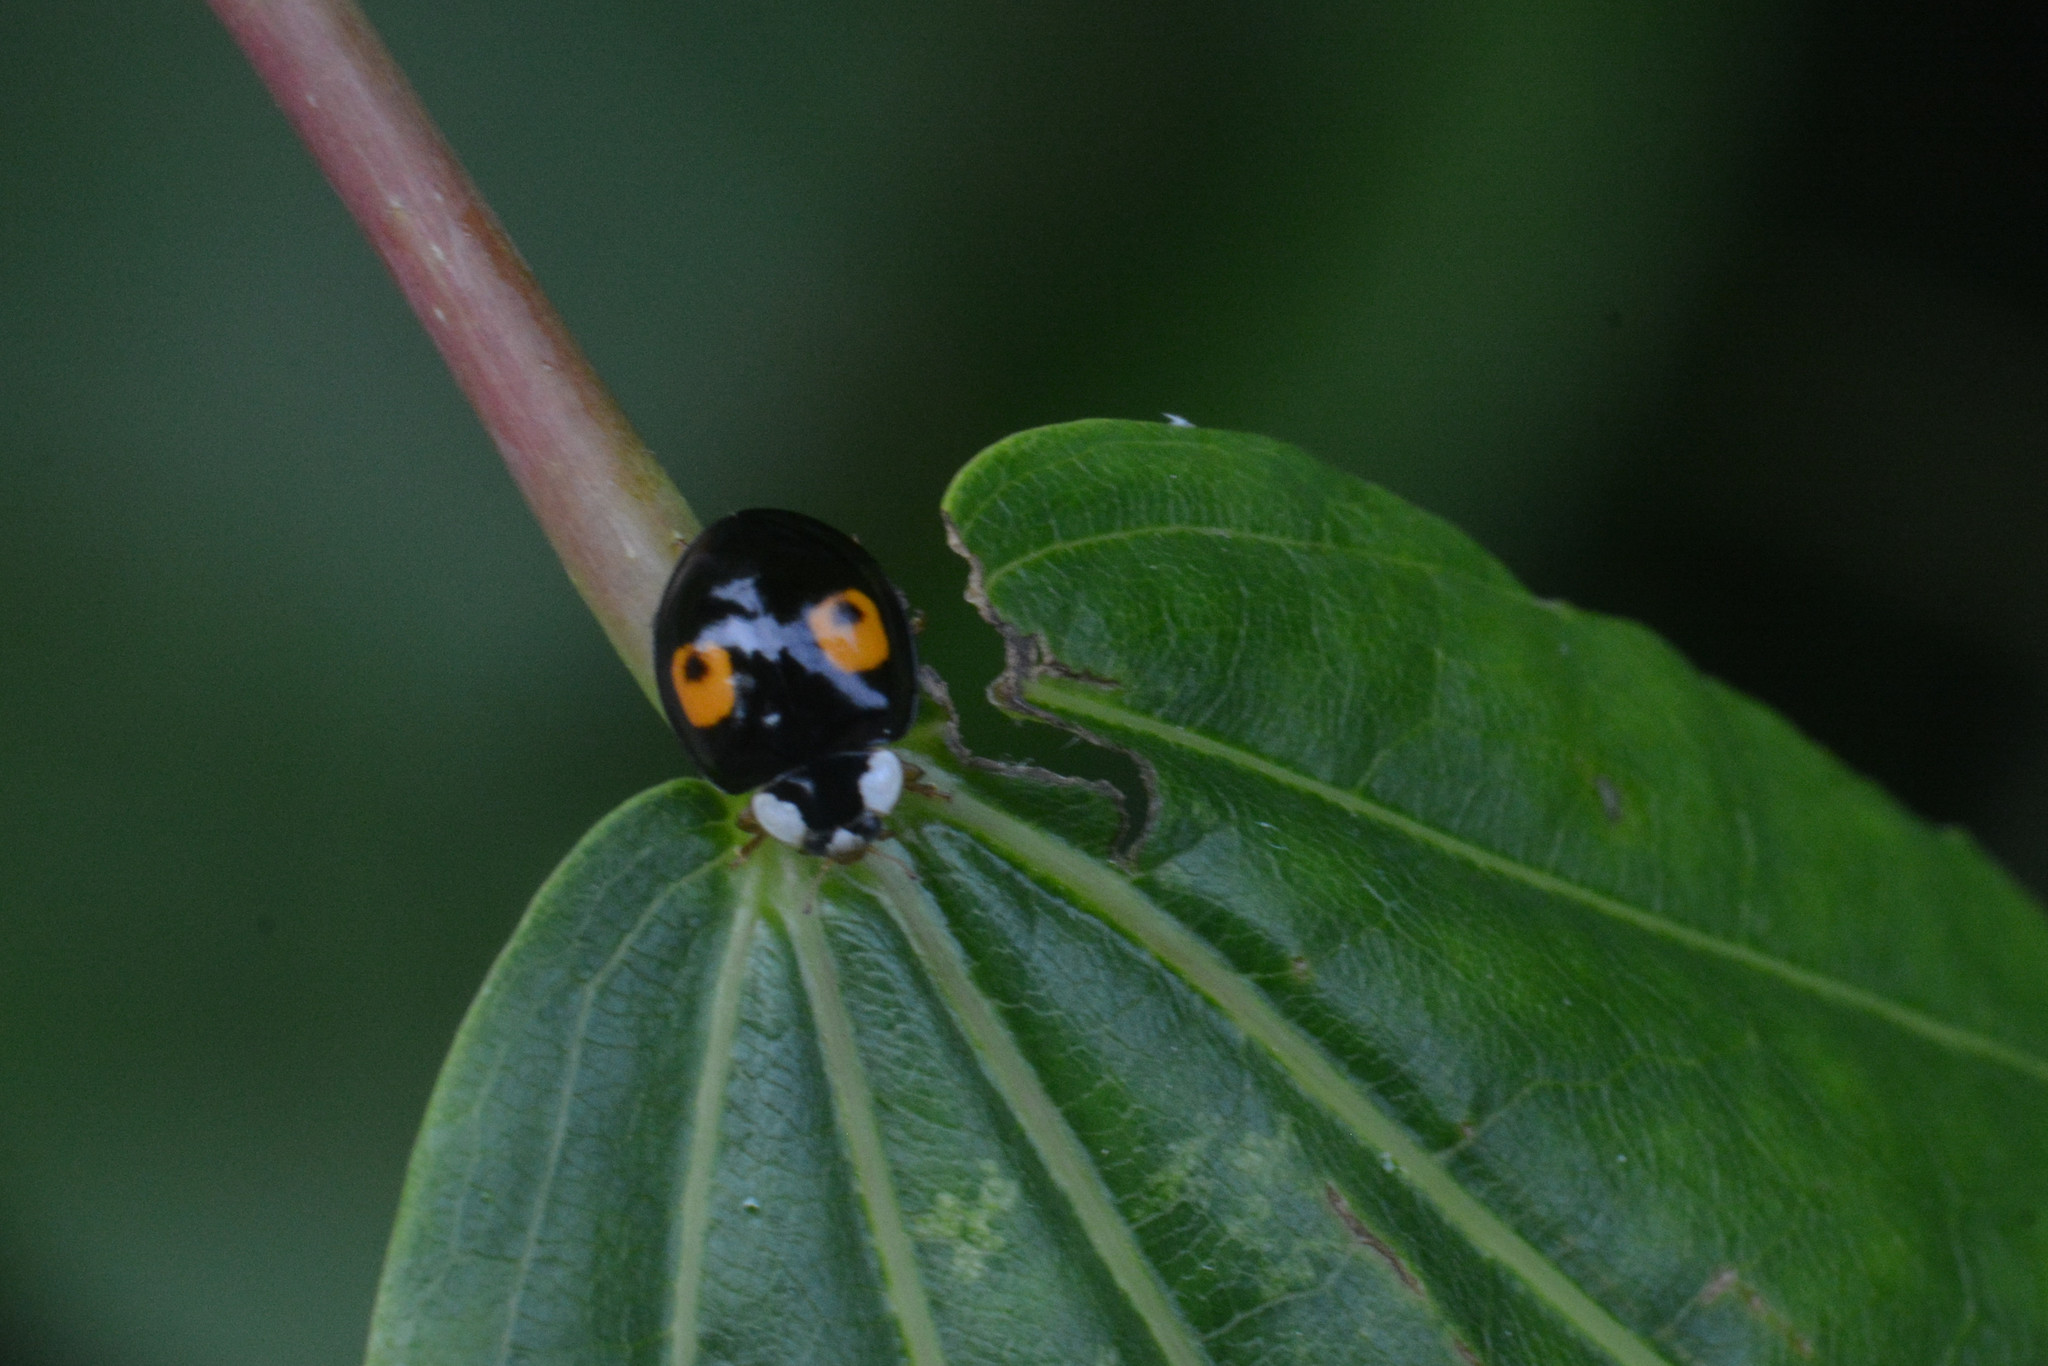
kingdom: Animalia
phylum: Arthropoda
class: Insecta
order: Coleoptera
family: Coccinellidae
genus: Harmonia
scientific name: Harmonia axyridis
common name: Harlequin ladybird
